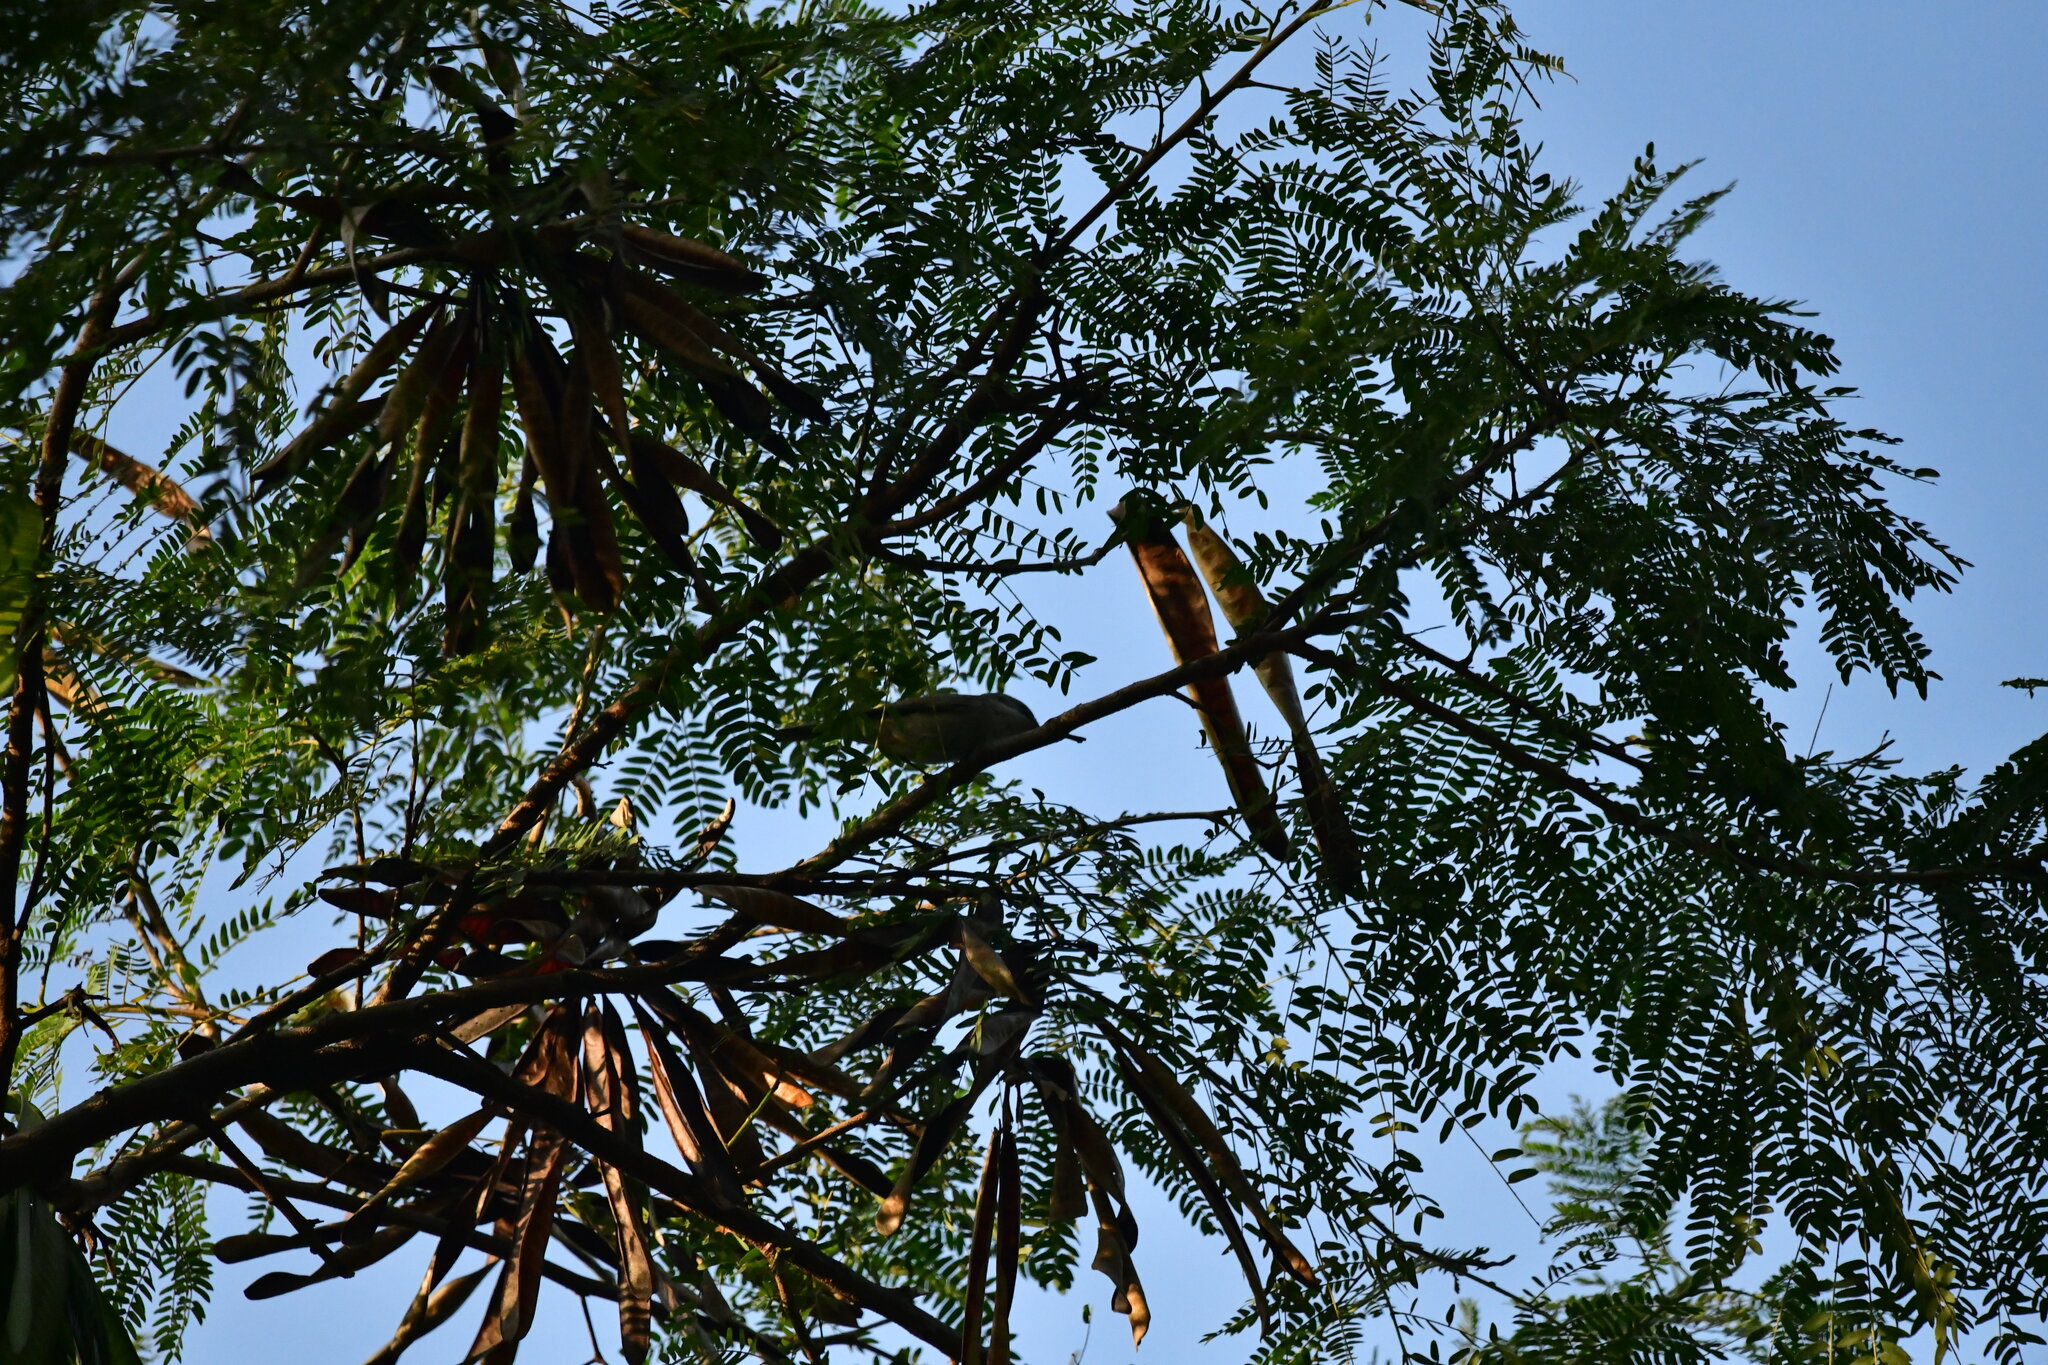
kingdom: Animalia
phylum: Chordata
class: Aves
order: Passeriformes
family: Sylviidae
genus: Sylvia
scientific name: Sylvia curruca
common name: Lesser whitethroat
